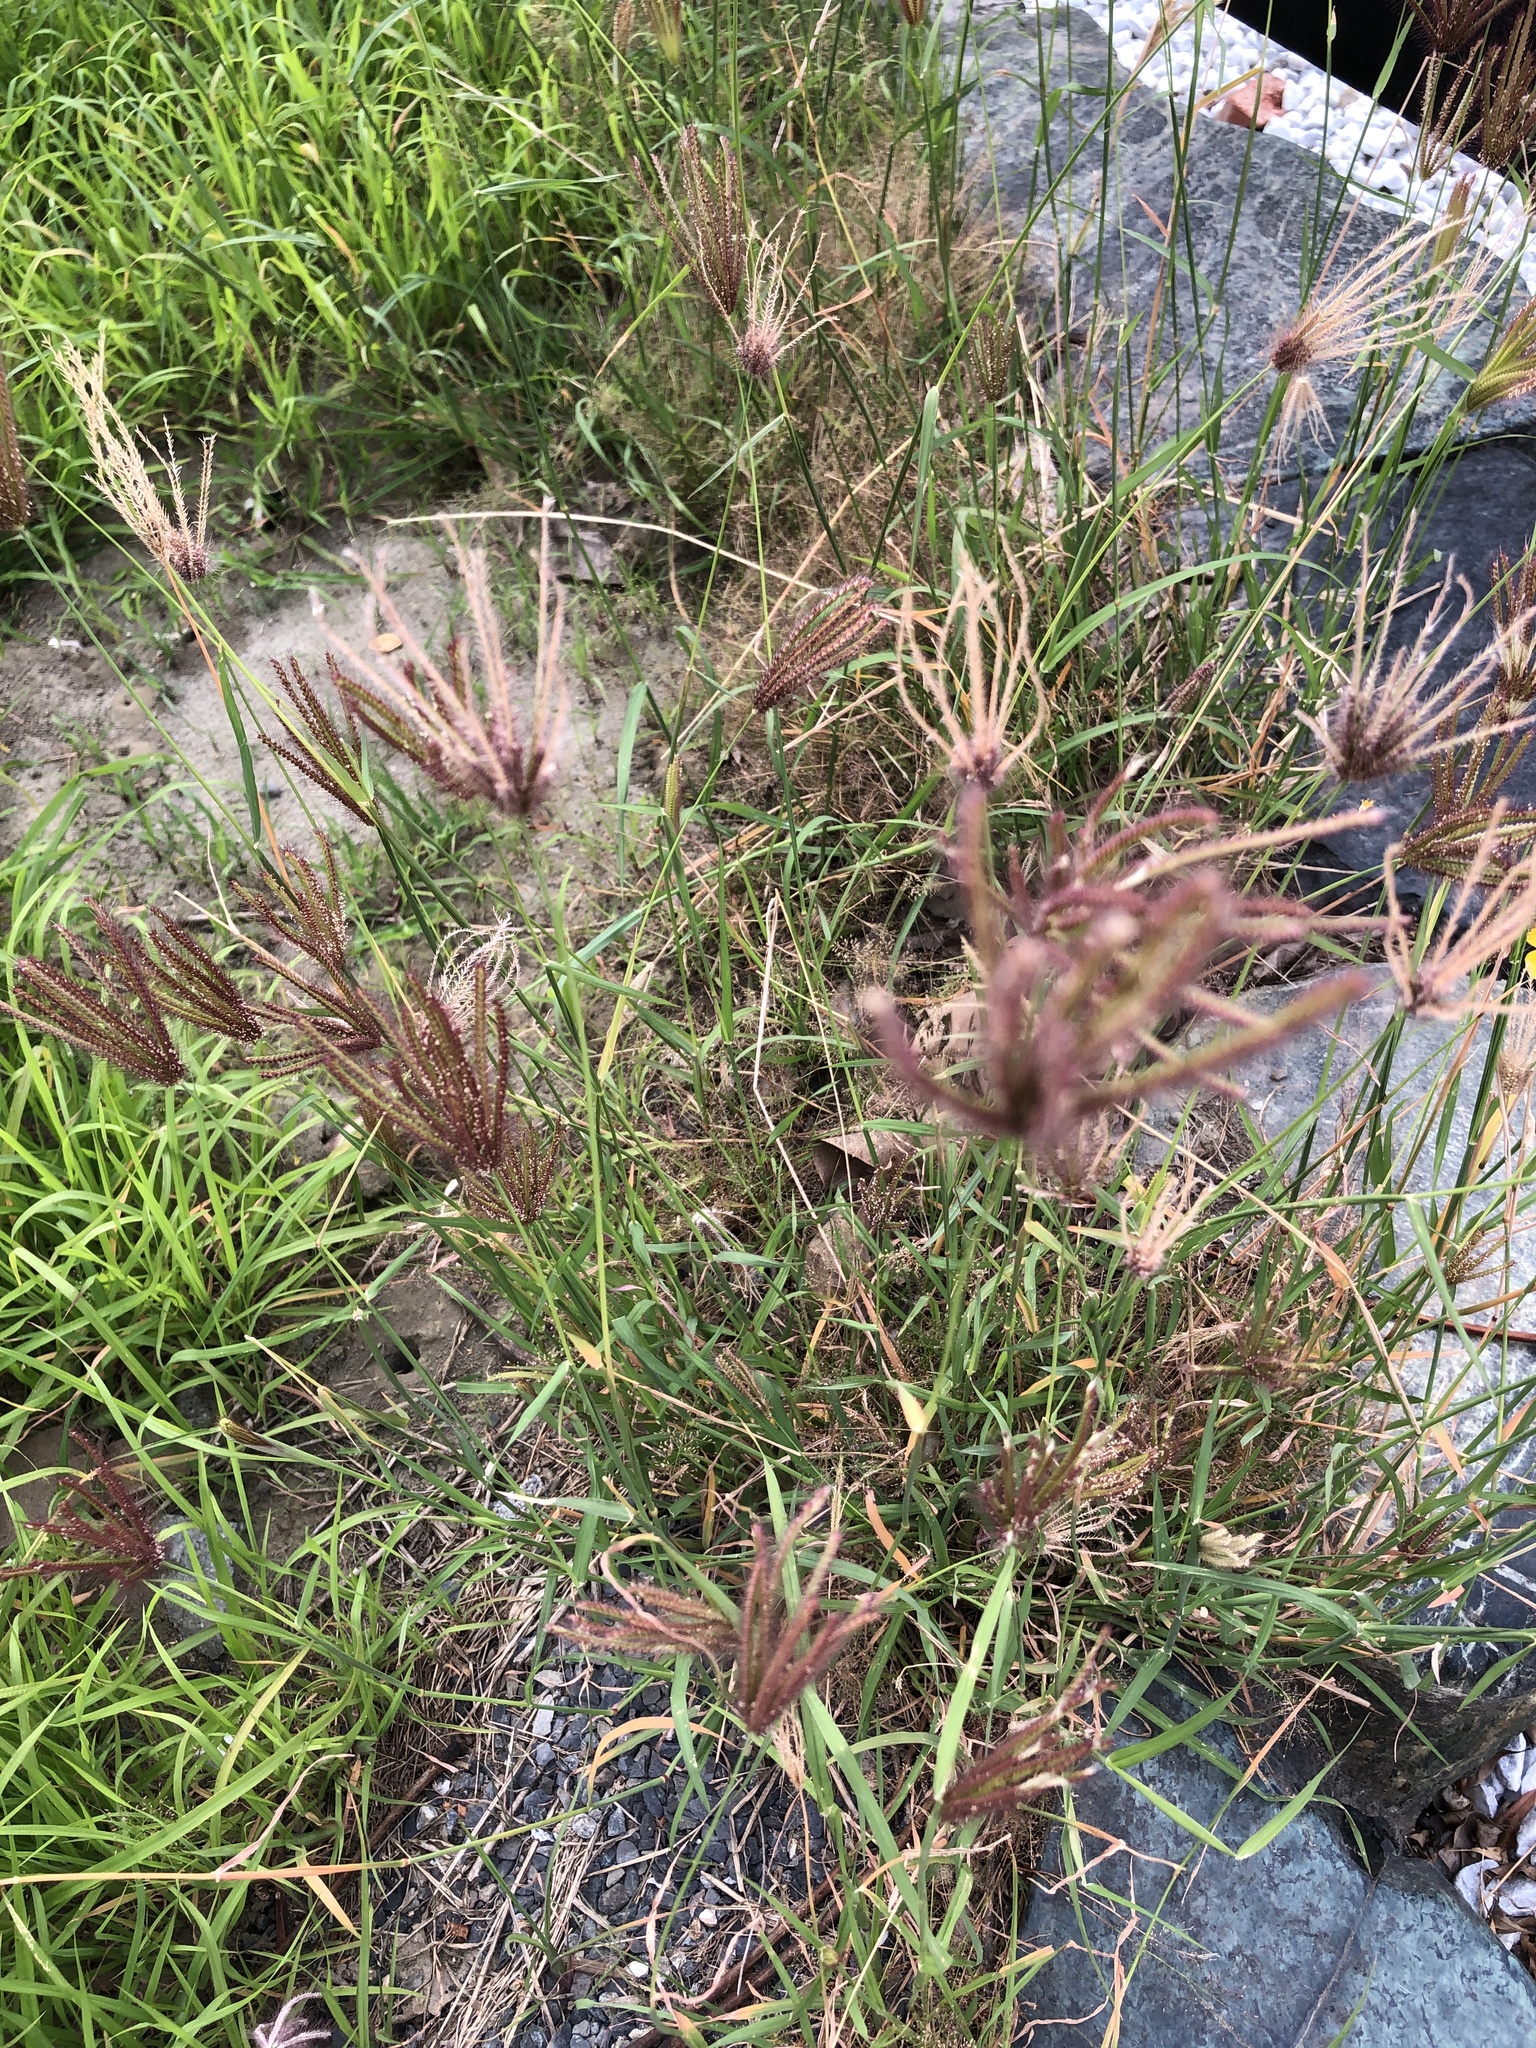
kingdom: Plantae
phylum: Tracheophyta
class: Liliopsida
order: Poales
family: Poaceae
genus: Chloris
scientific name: Chloris barbata
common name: Swollen fingergrass
